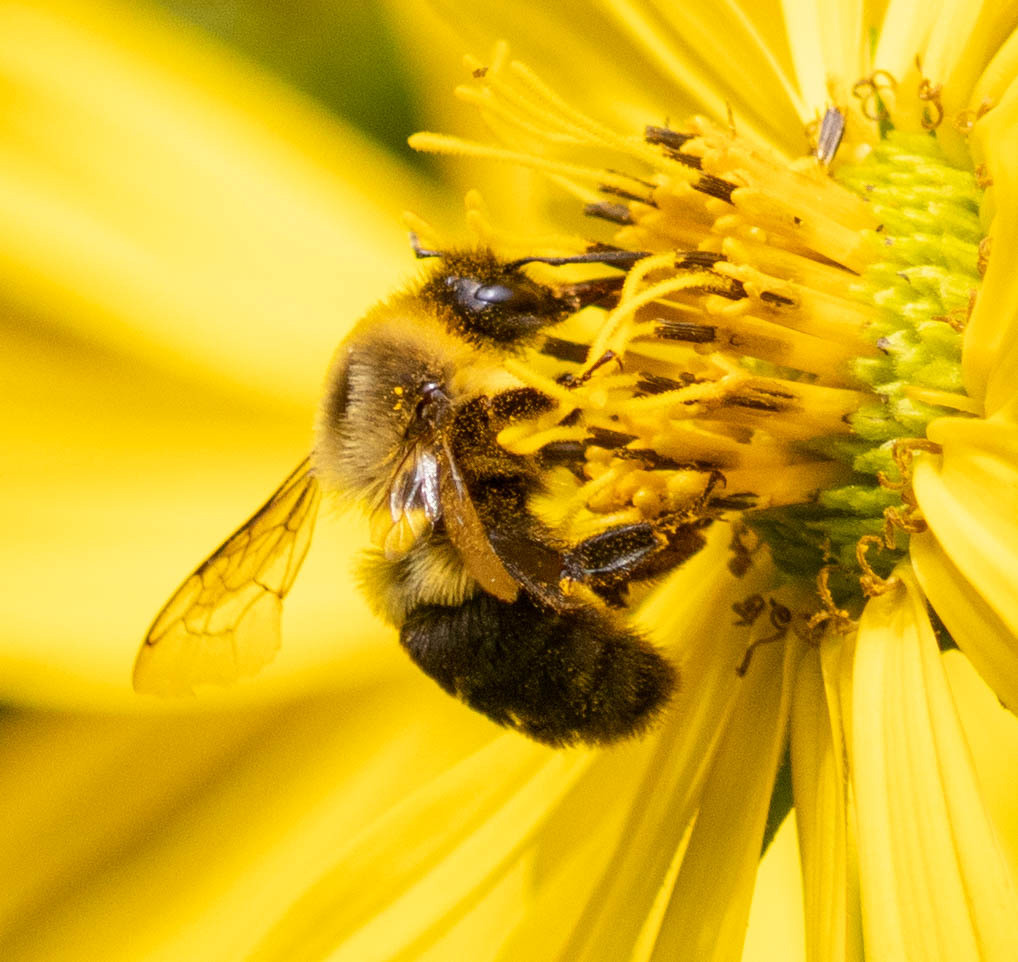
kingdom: Animalia
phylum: Arthropoda
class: Insecta
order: Hymenoptera
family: Apidae
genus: Bombus
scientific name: Bombus impatiens
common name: Common eastern bumble bee
